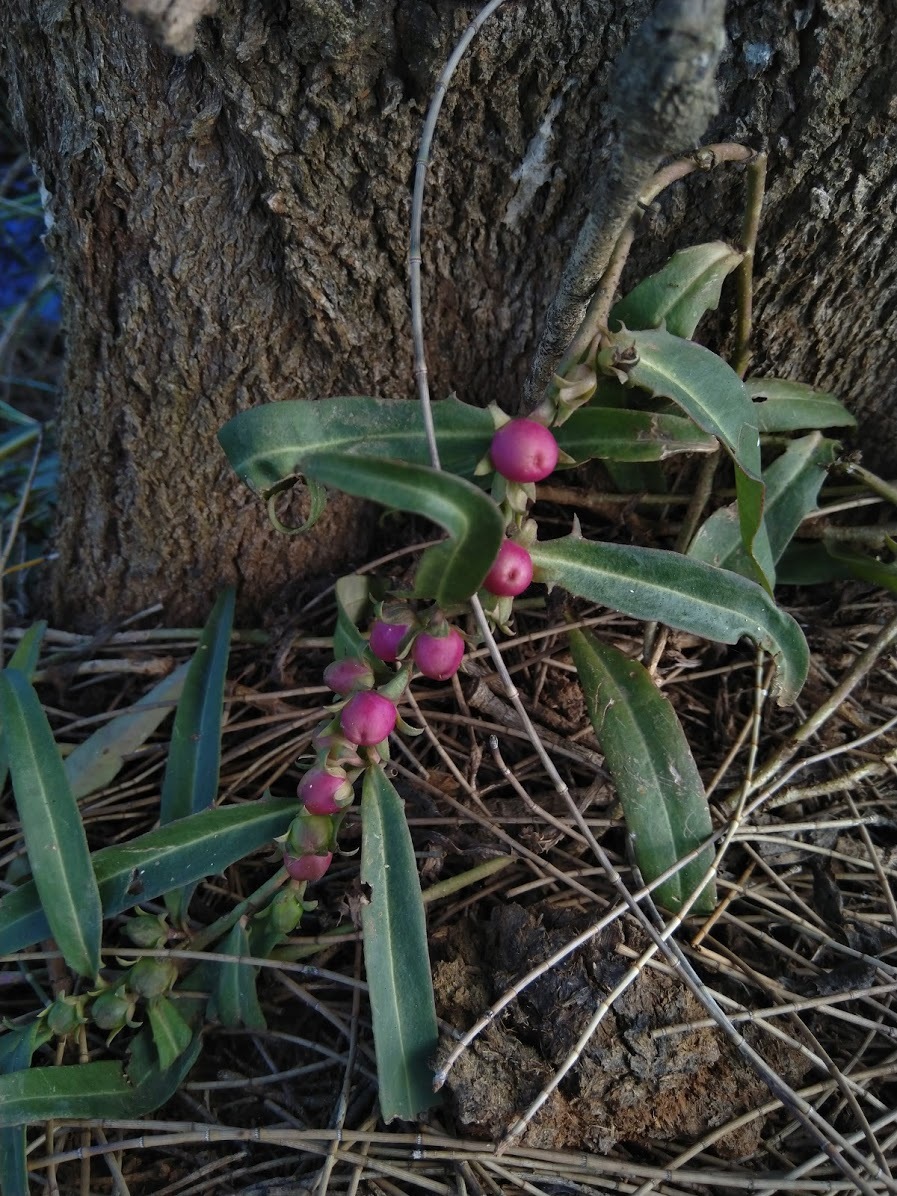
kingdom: Plantae
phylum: Tracheophyta
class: Magnoliopsida
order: Lamiales
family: Scrophulariaceae
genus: Eremophila
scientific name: Eremophila debilis
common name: Winter-apple
